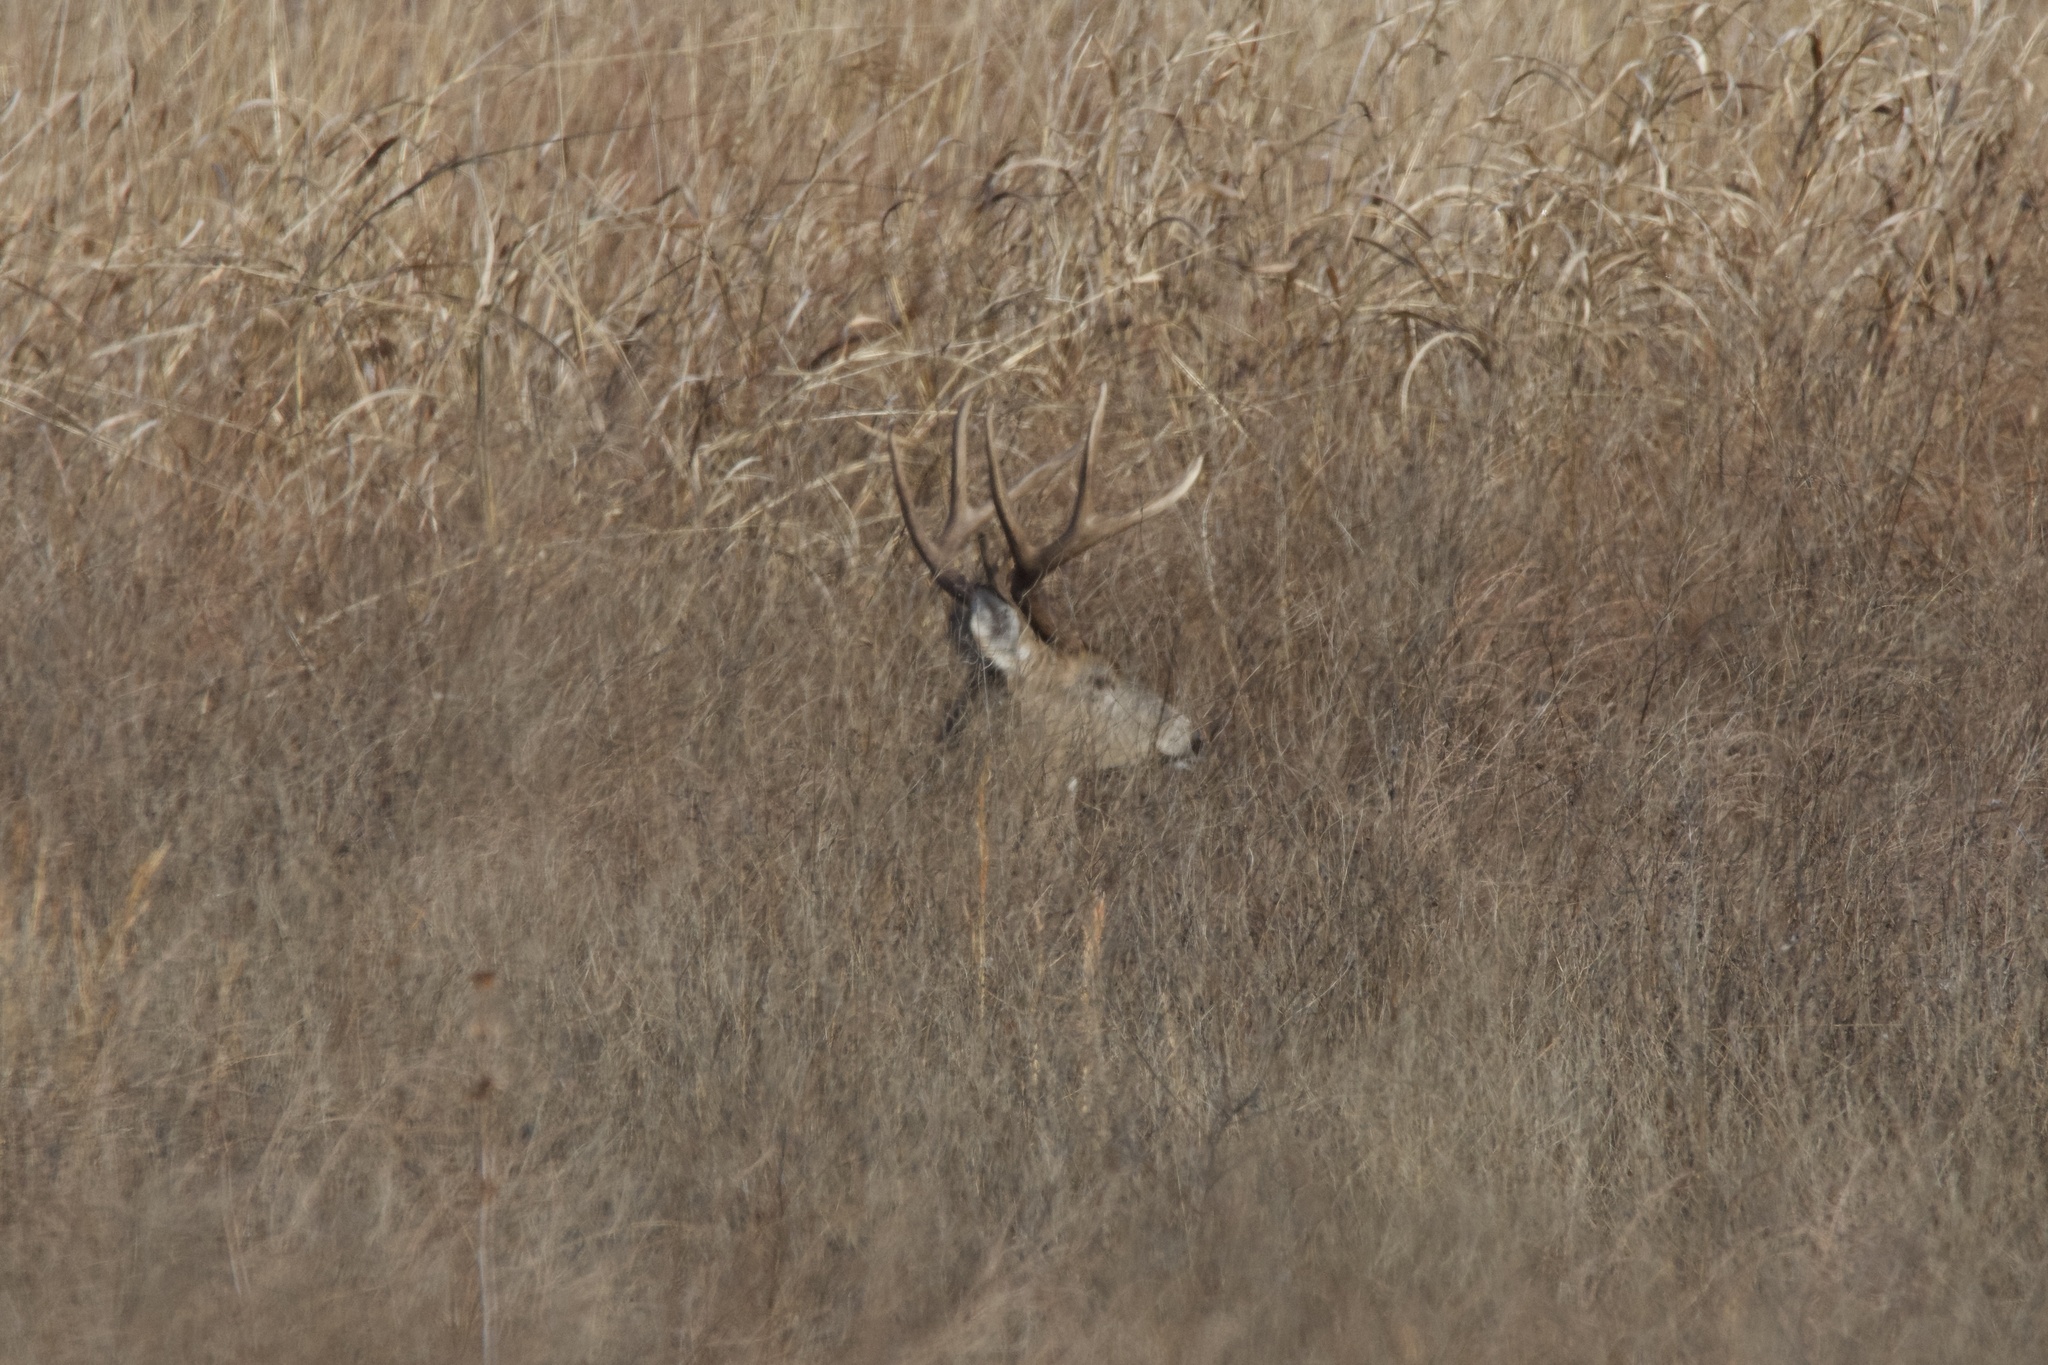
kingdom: Animalia
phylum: Chordata
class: Mammalia
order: Artiodactyla
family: Cervidae
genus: Odocoileus
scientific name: Odocoileus virginianus
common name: White-tailed deer
